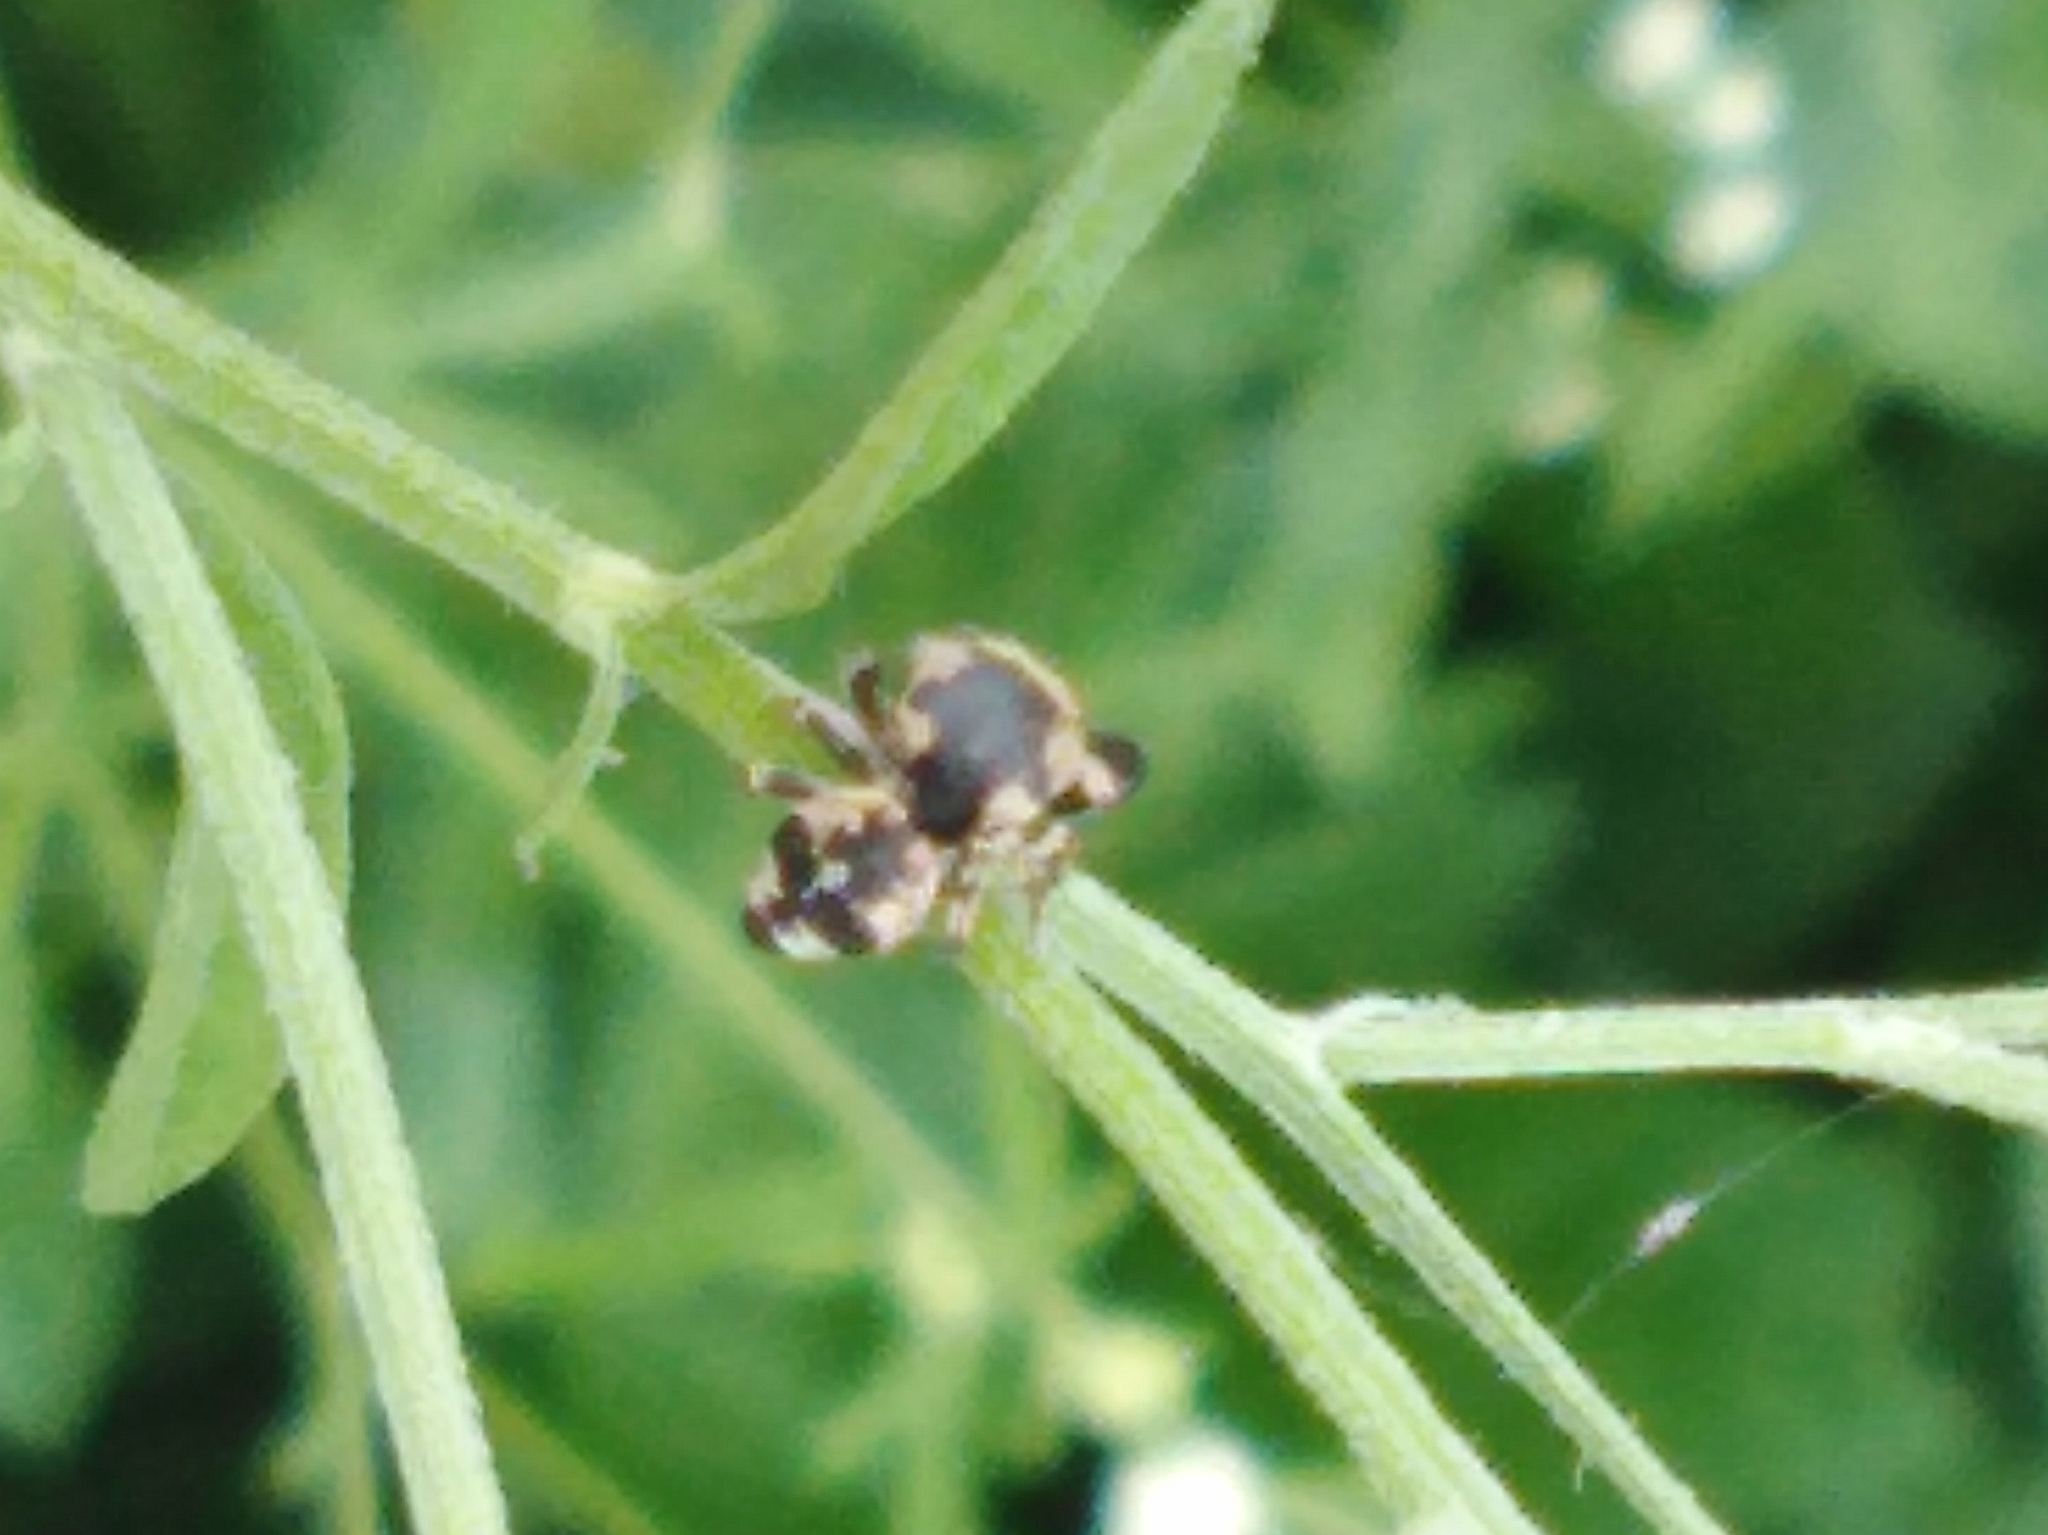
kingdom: Animalia
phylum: Arthropoda
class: Arachnida
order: Araneae
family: Salticidae
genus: Rhene
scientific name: Rhene flavigera
